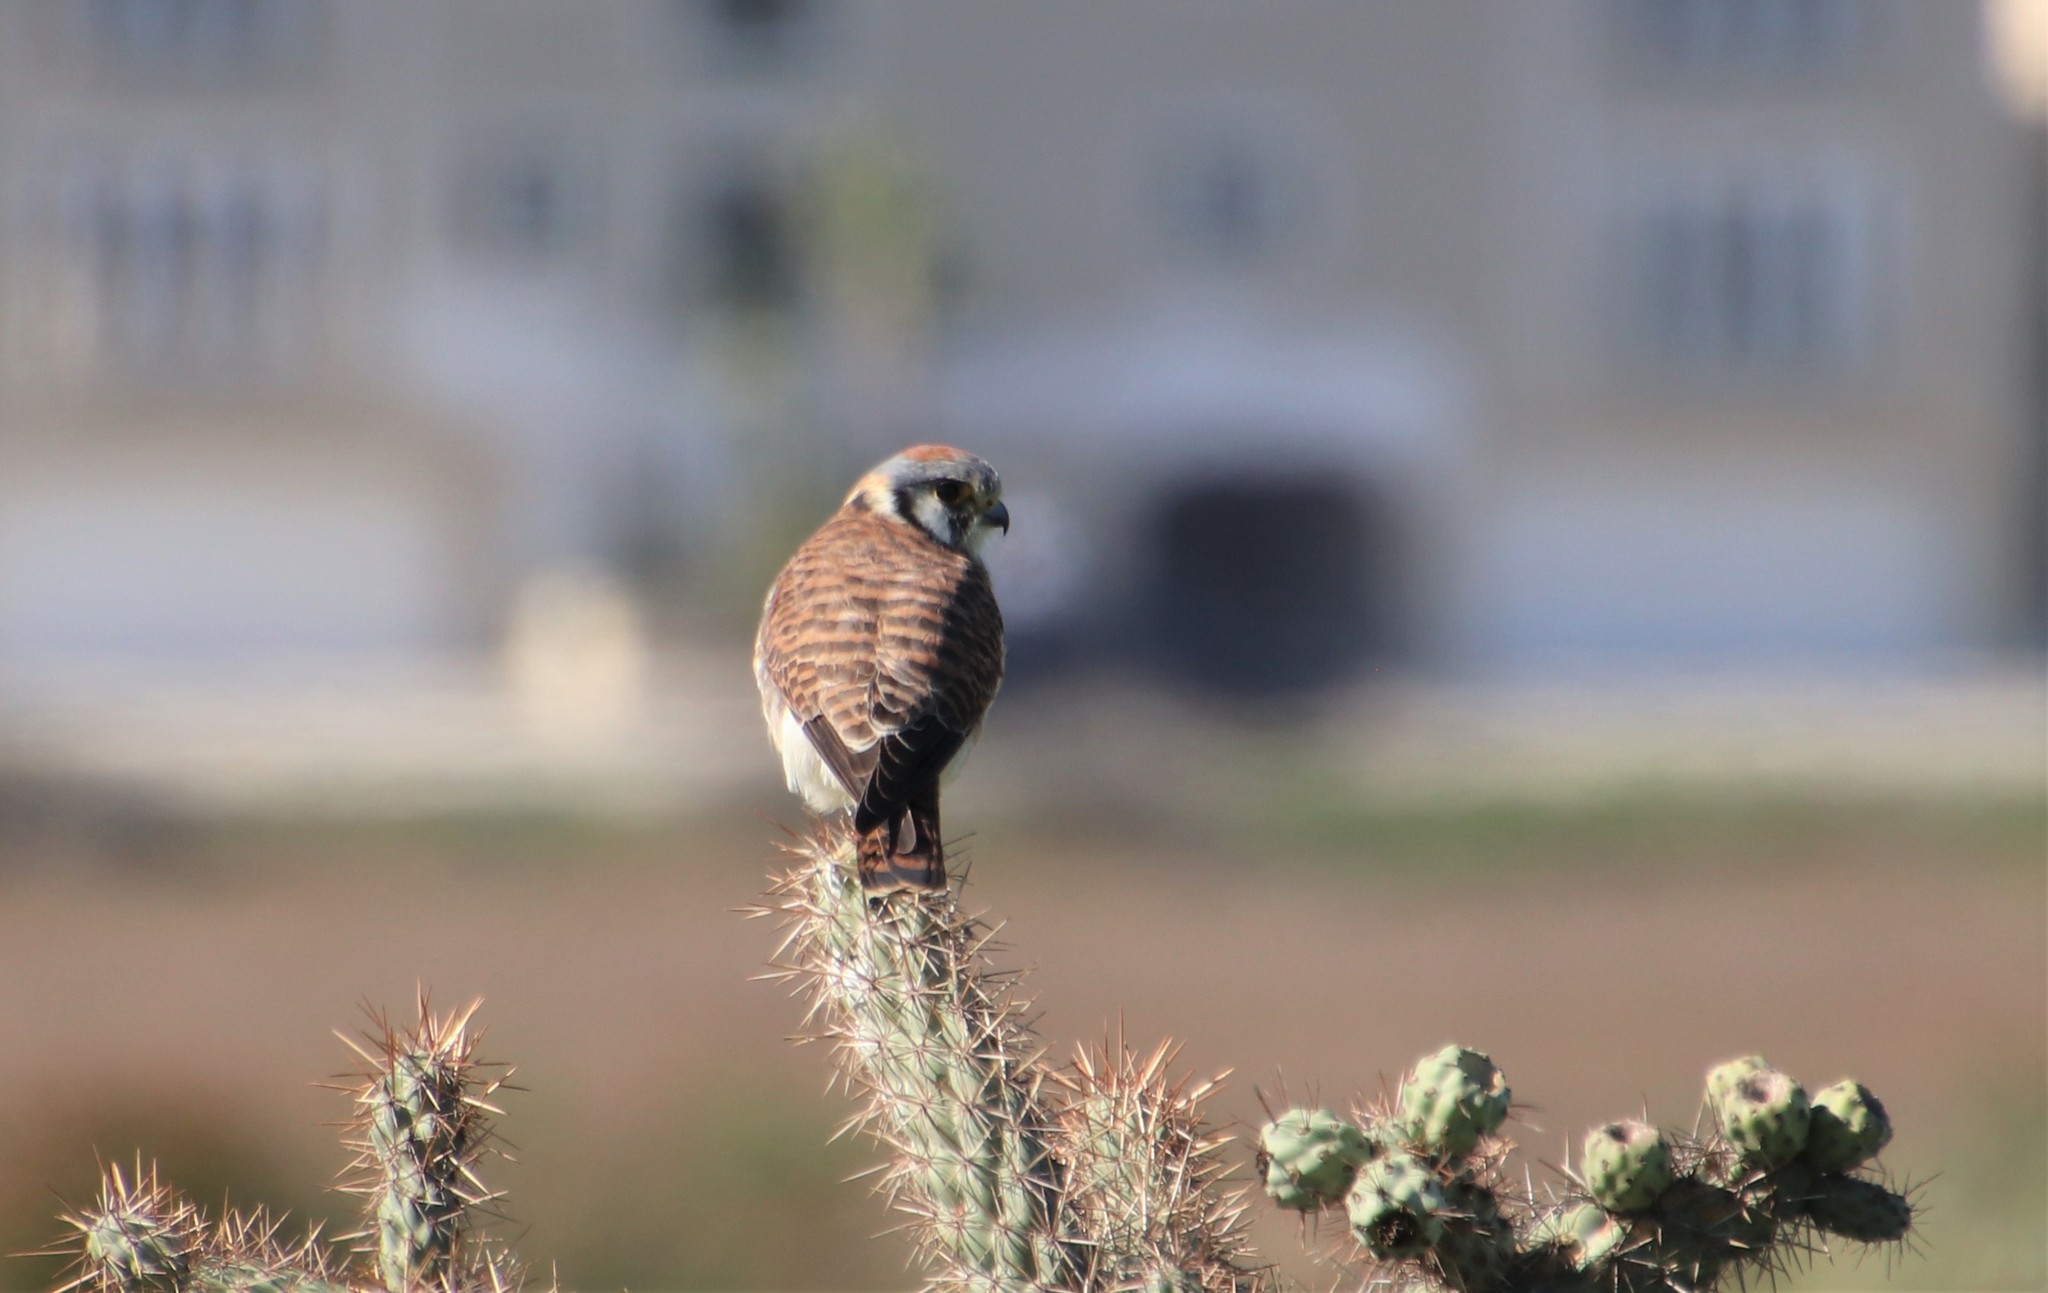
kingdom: Animalia
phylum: Chordata
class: Aves
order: Falconiformes
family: Falconidae
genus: Falco
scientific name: Falco sparverius
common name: American kestrel
